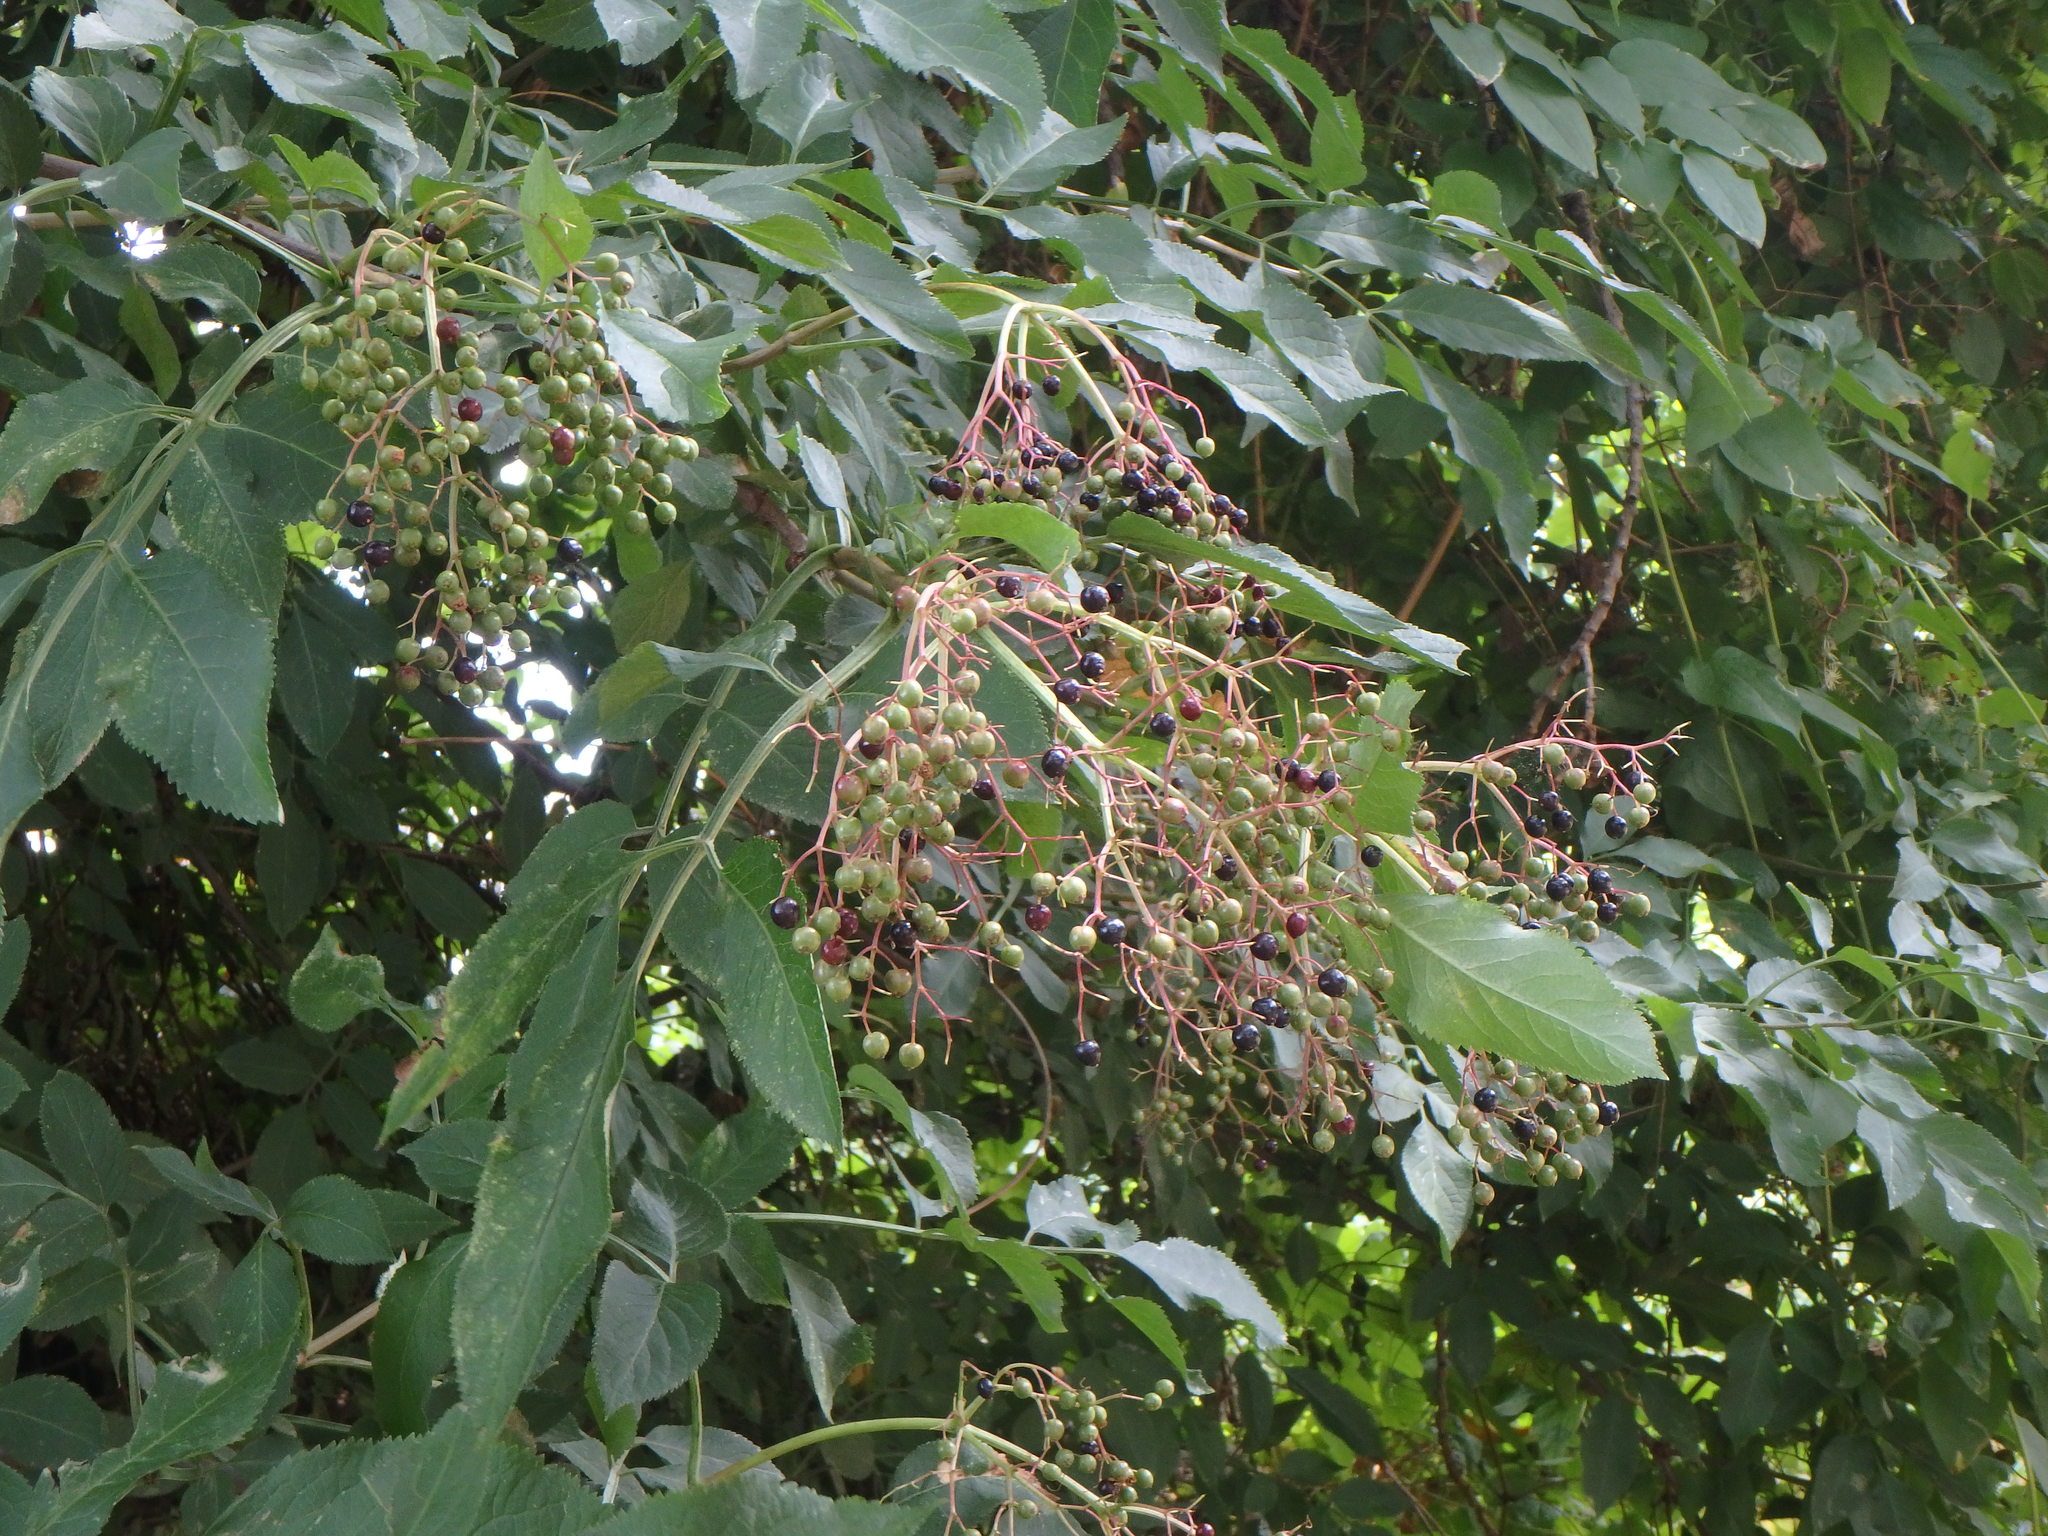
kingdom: Plantae
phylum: Tracheophyta
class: Magnoliopsida
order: Dipsacales
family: Viburnaceae
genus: Sambucus
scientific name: Sambucus nigra
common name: Elder
